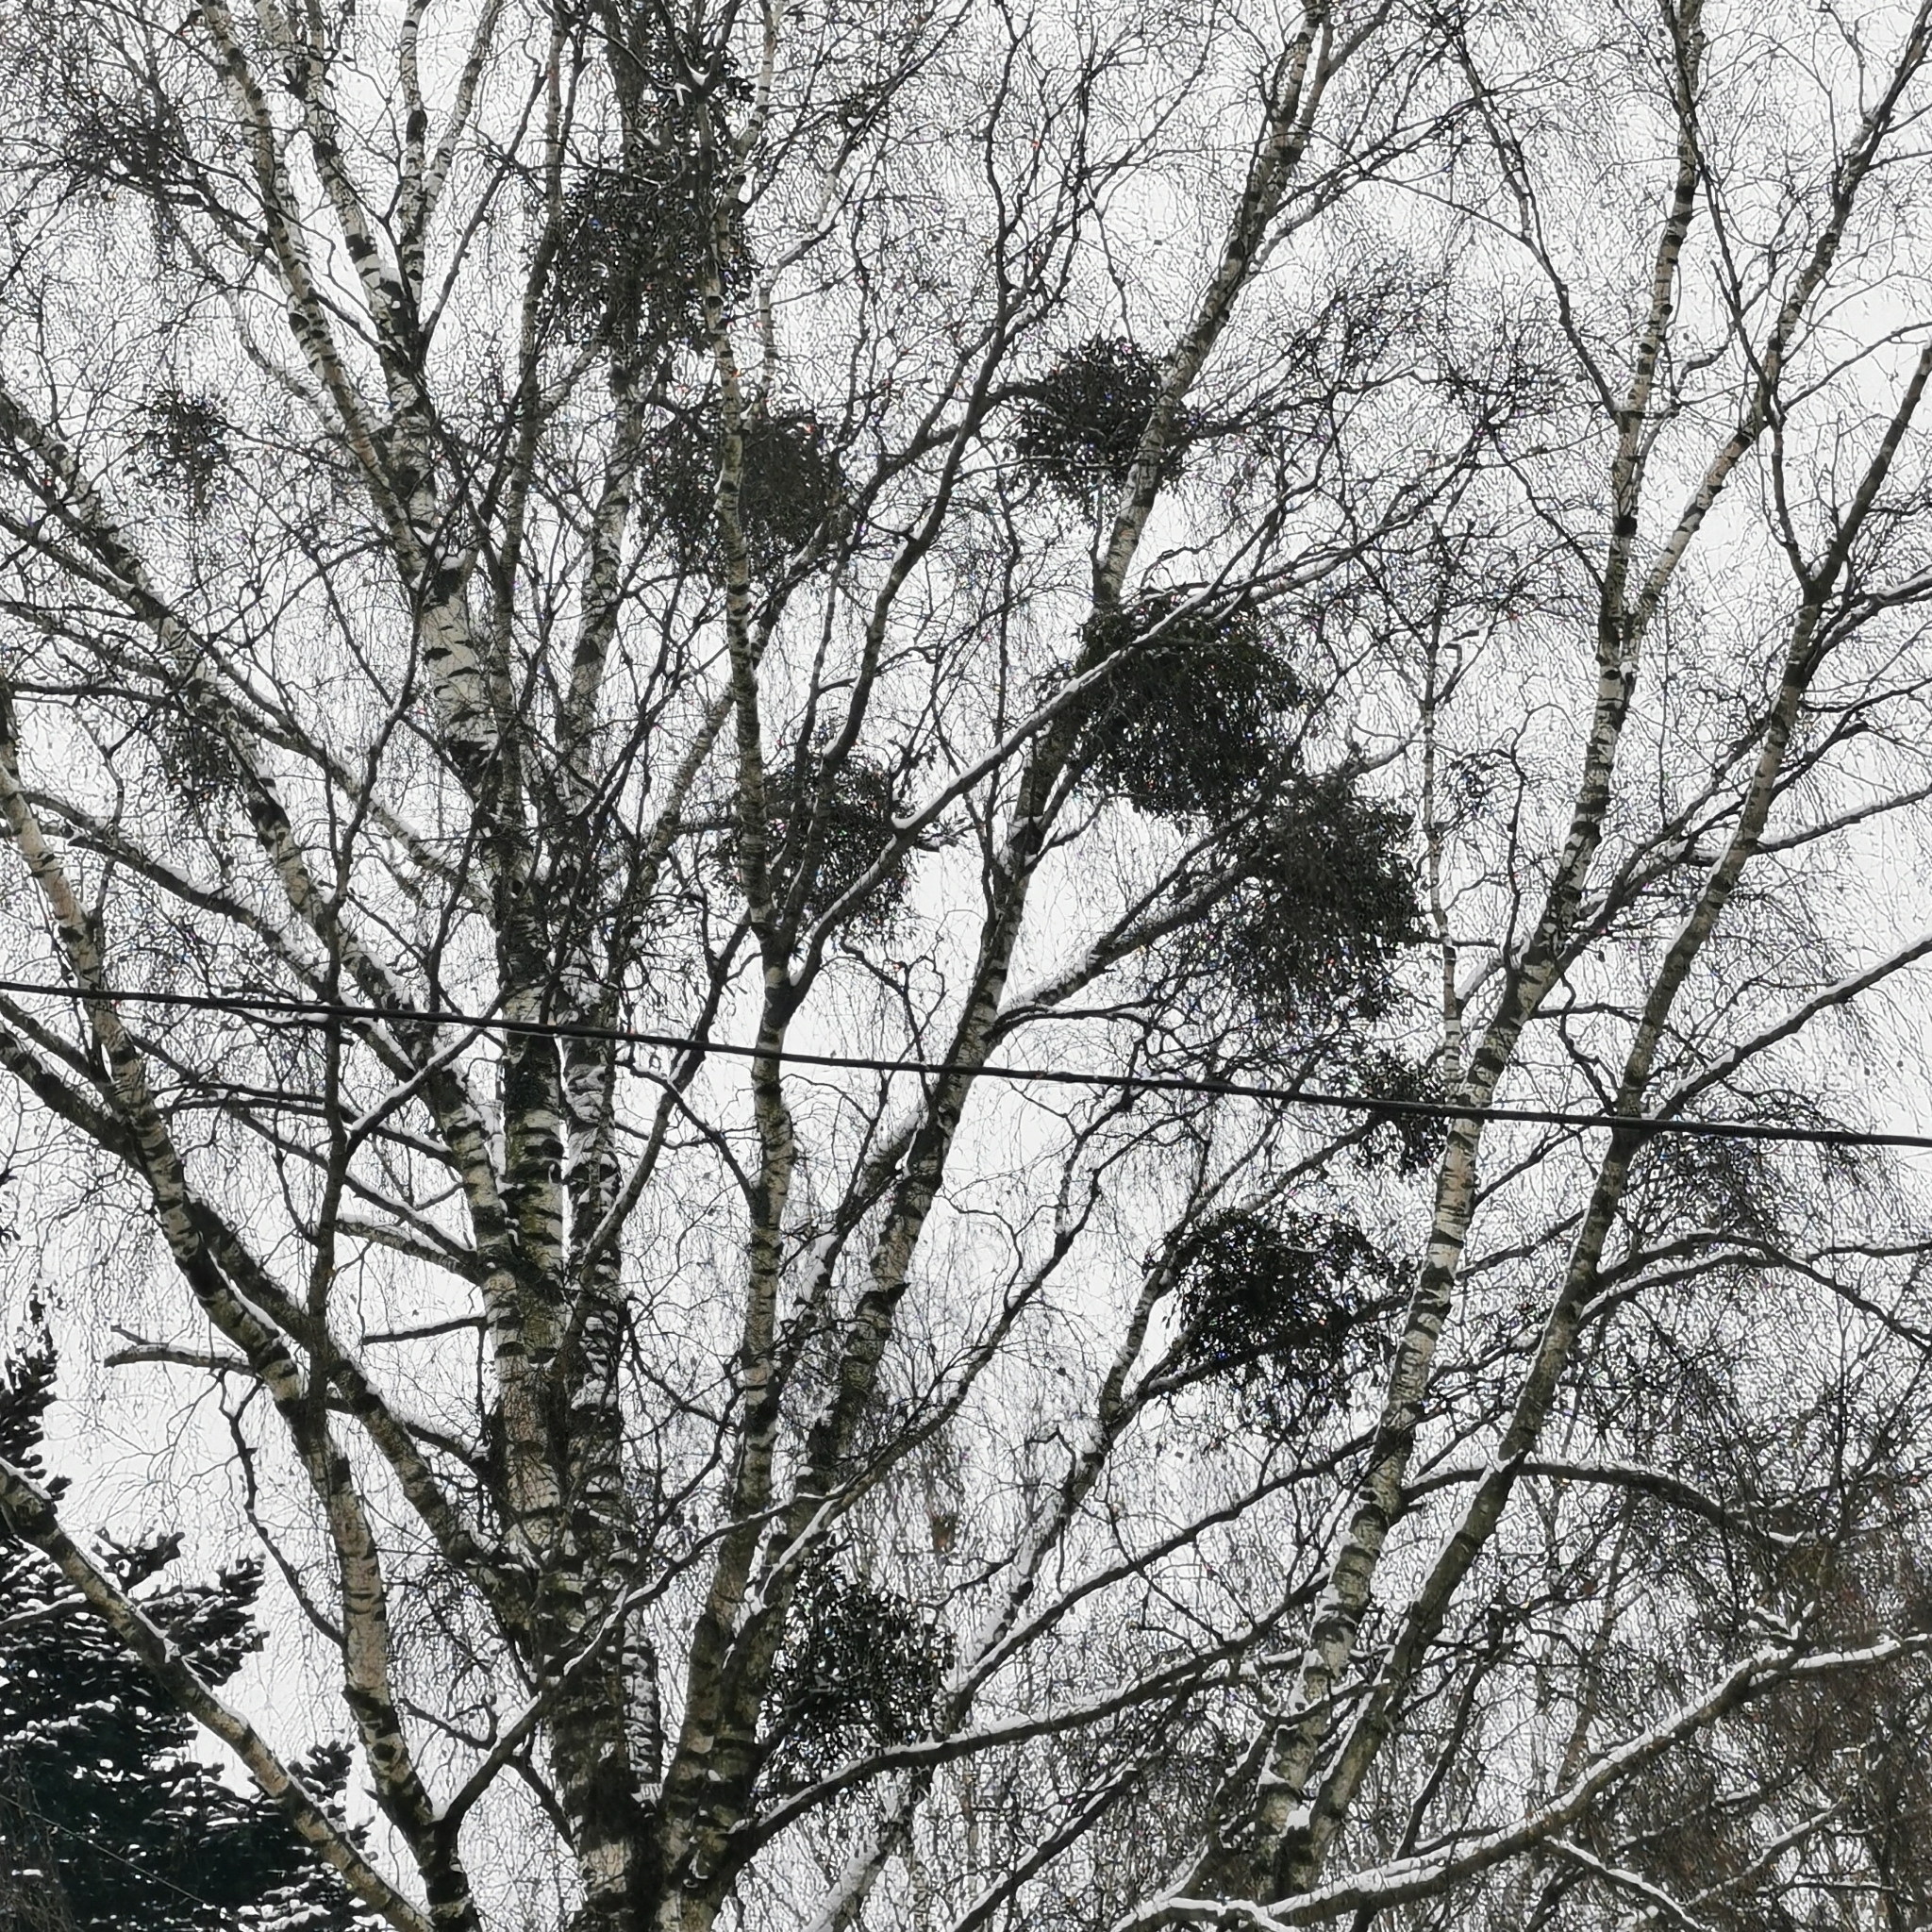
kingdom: Plantae
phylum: Tracheophyta
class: Magnoliopsida
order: Santalales
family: Viscaceae
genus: Viscum
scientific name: Viscum album
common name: Mistletoe
